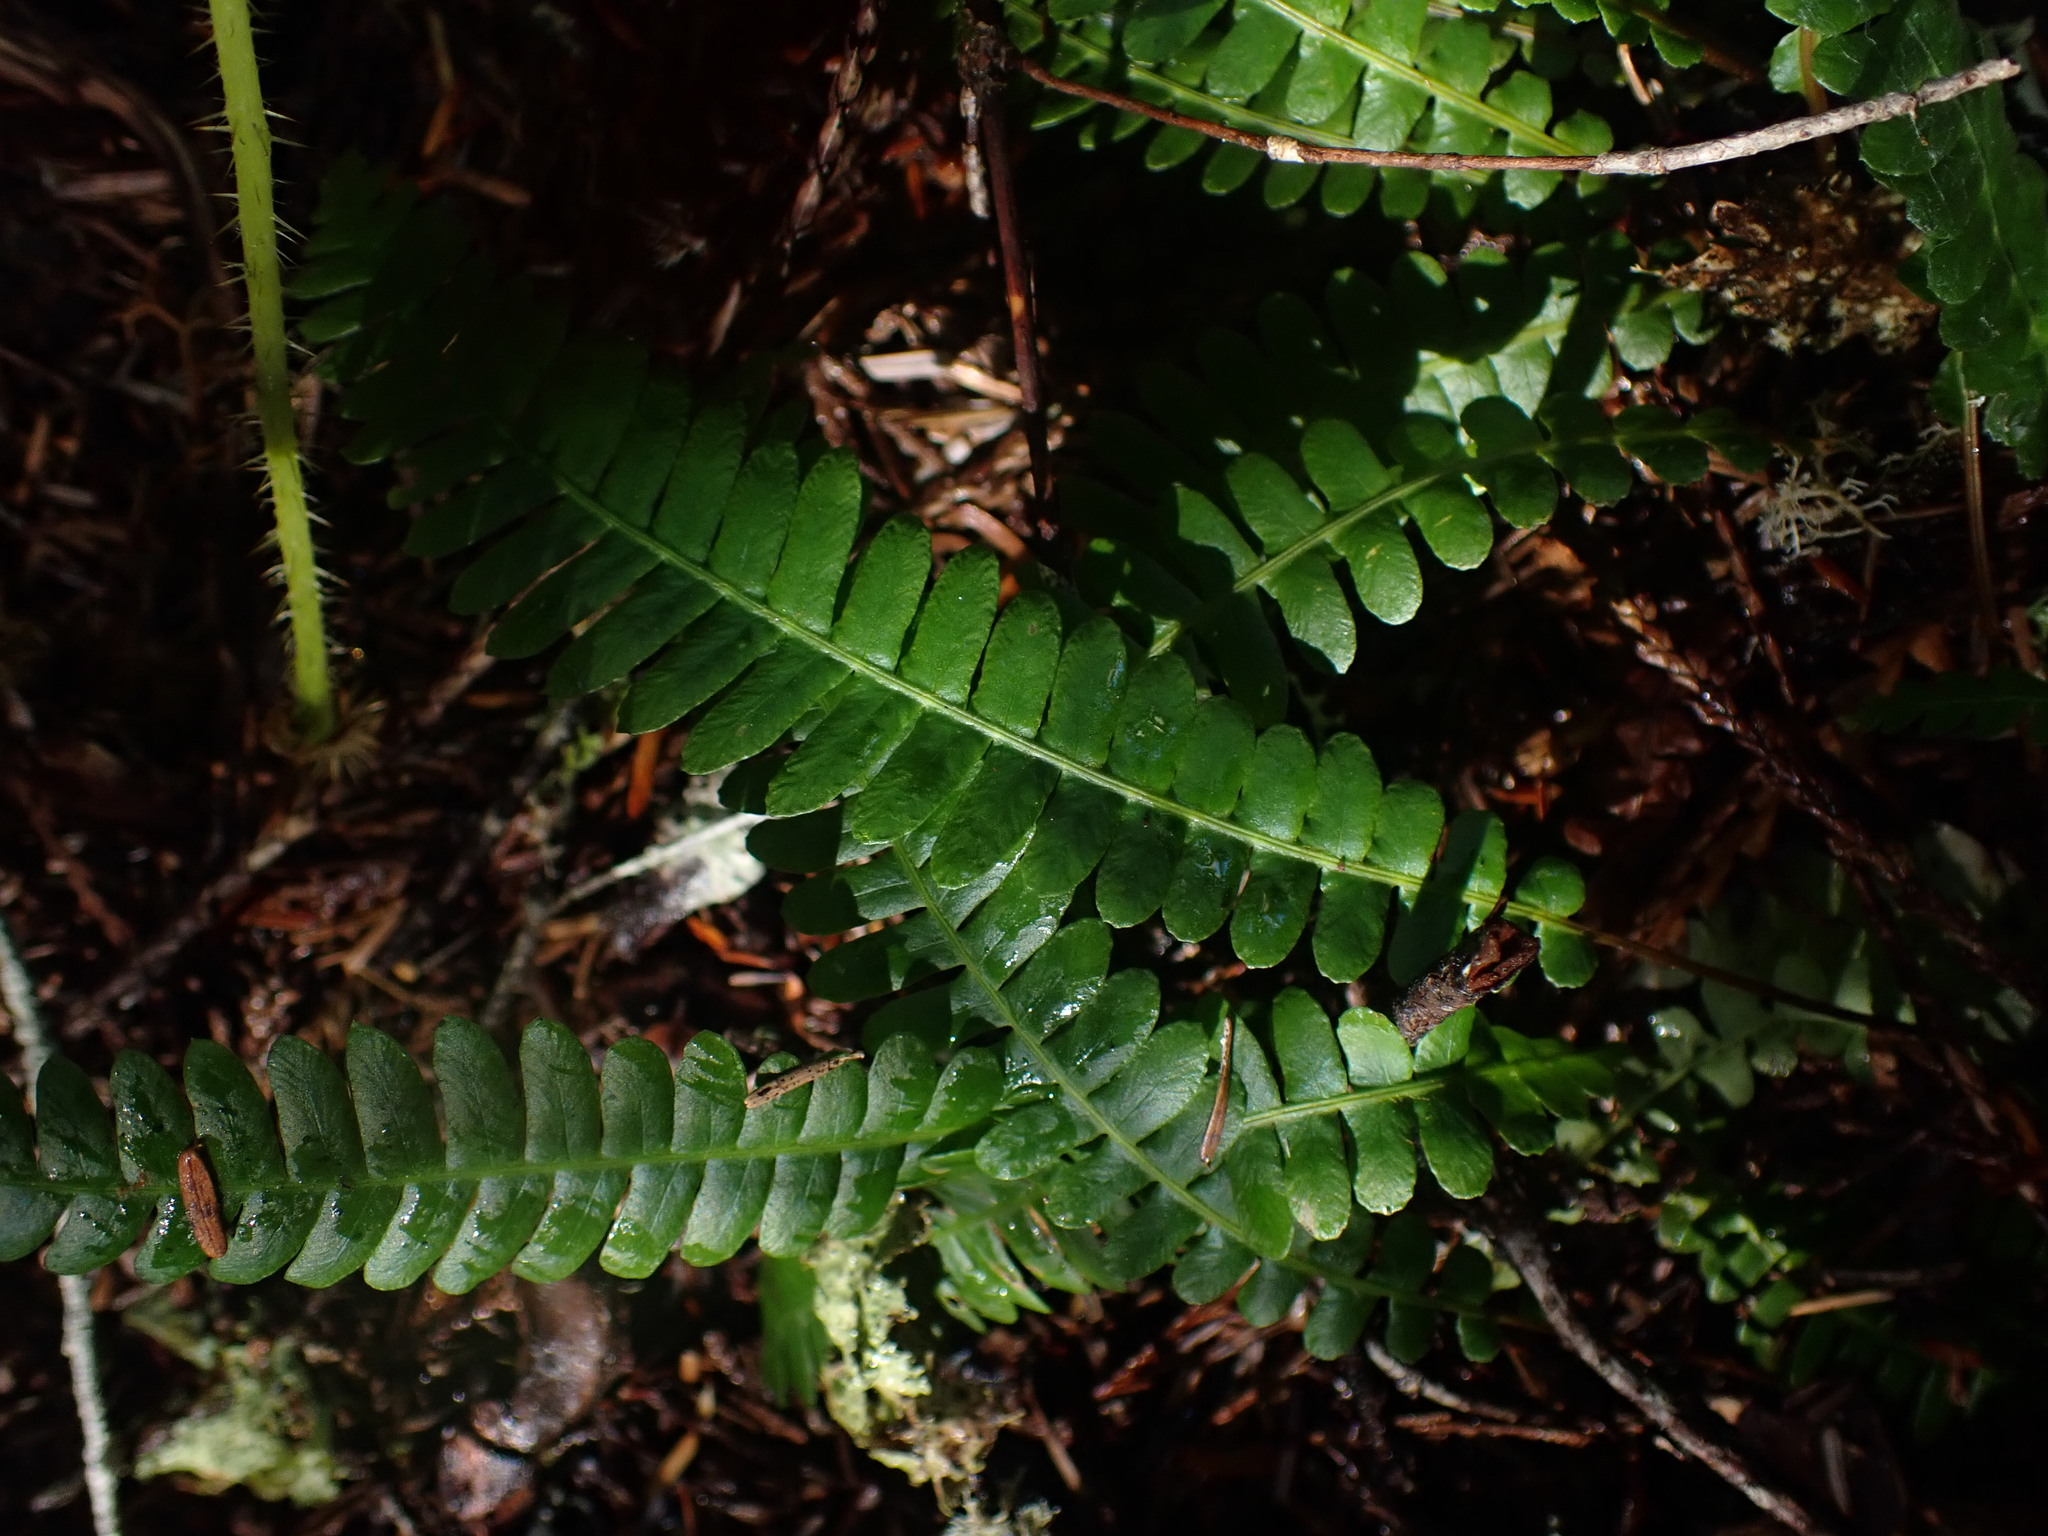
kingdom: Plantae
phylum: Tracheophyta
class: Polypodiopsida
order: Polypodiales
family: Blechnaceae
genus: Struthiopteris
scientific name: Struthiopteris spicant
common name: Deer fern
